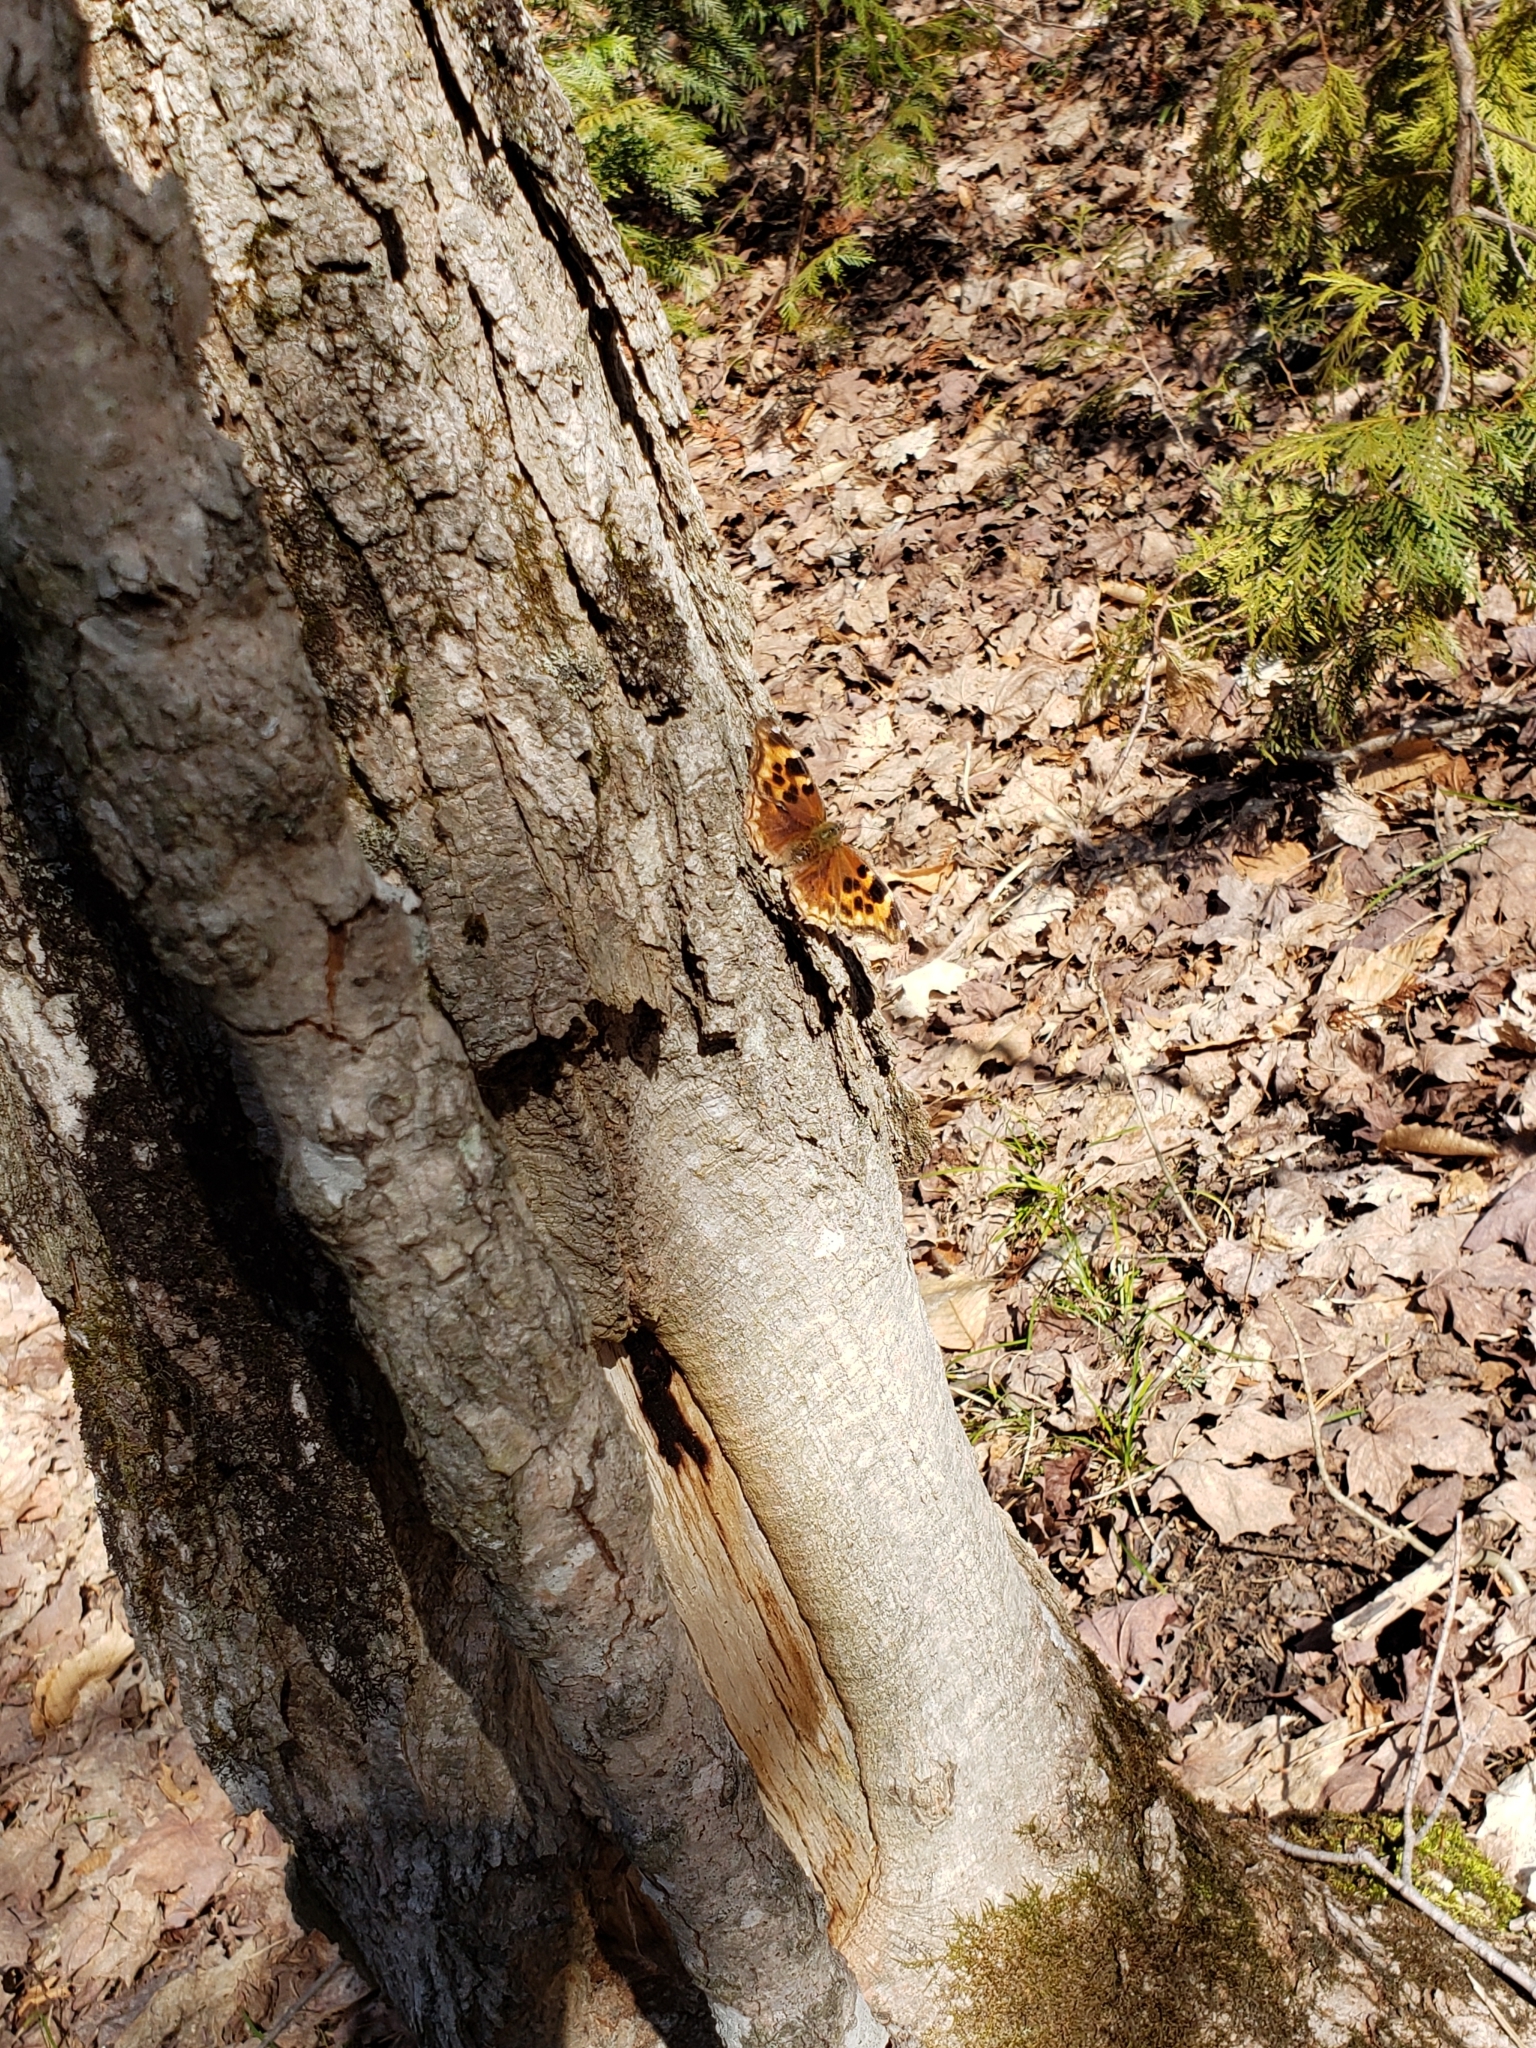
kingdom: Animalia
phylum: Arthropoda
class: Insecta
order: Lepidoptera
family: Nymphalidae
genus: Polygonia
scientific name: Polygonia vaualbum
